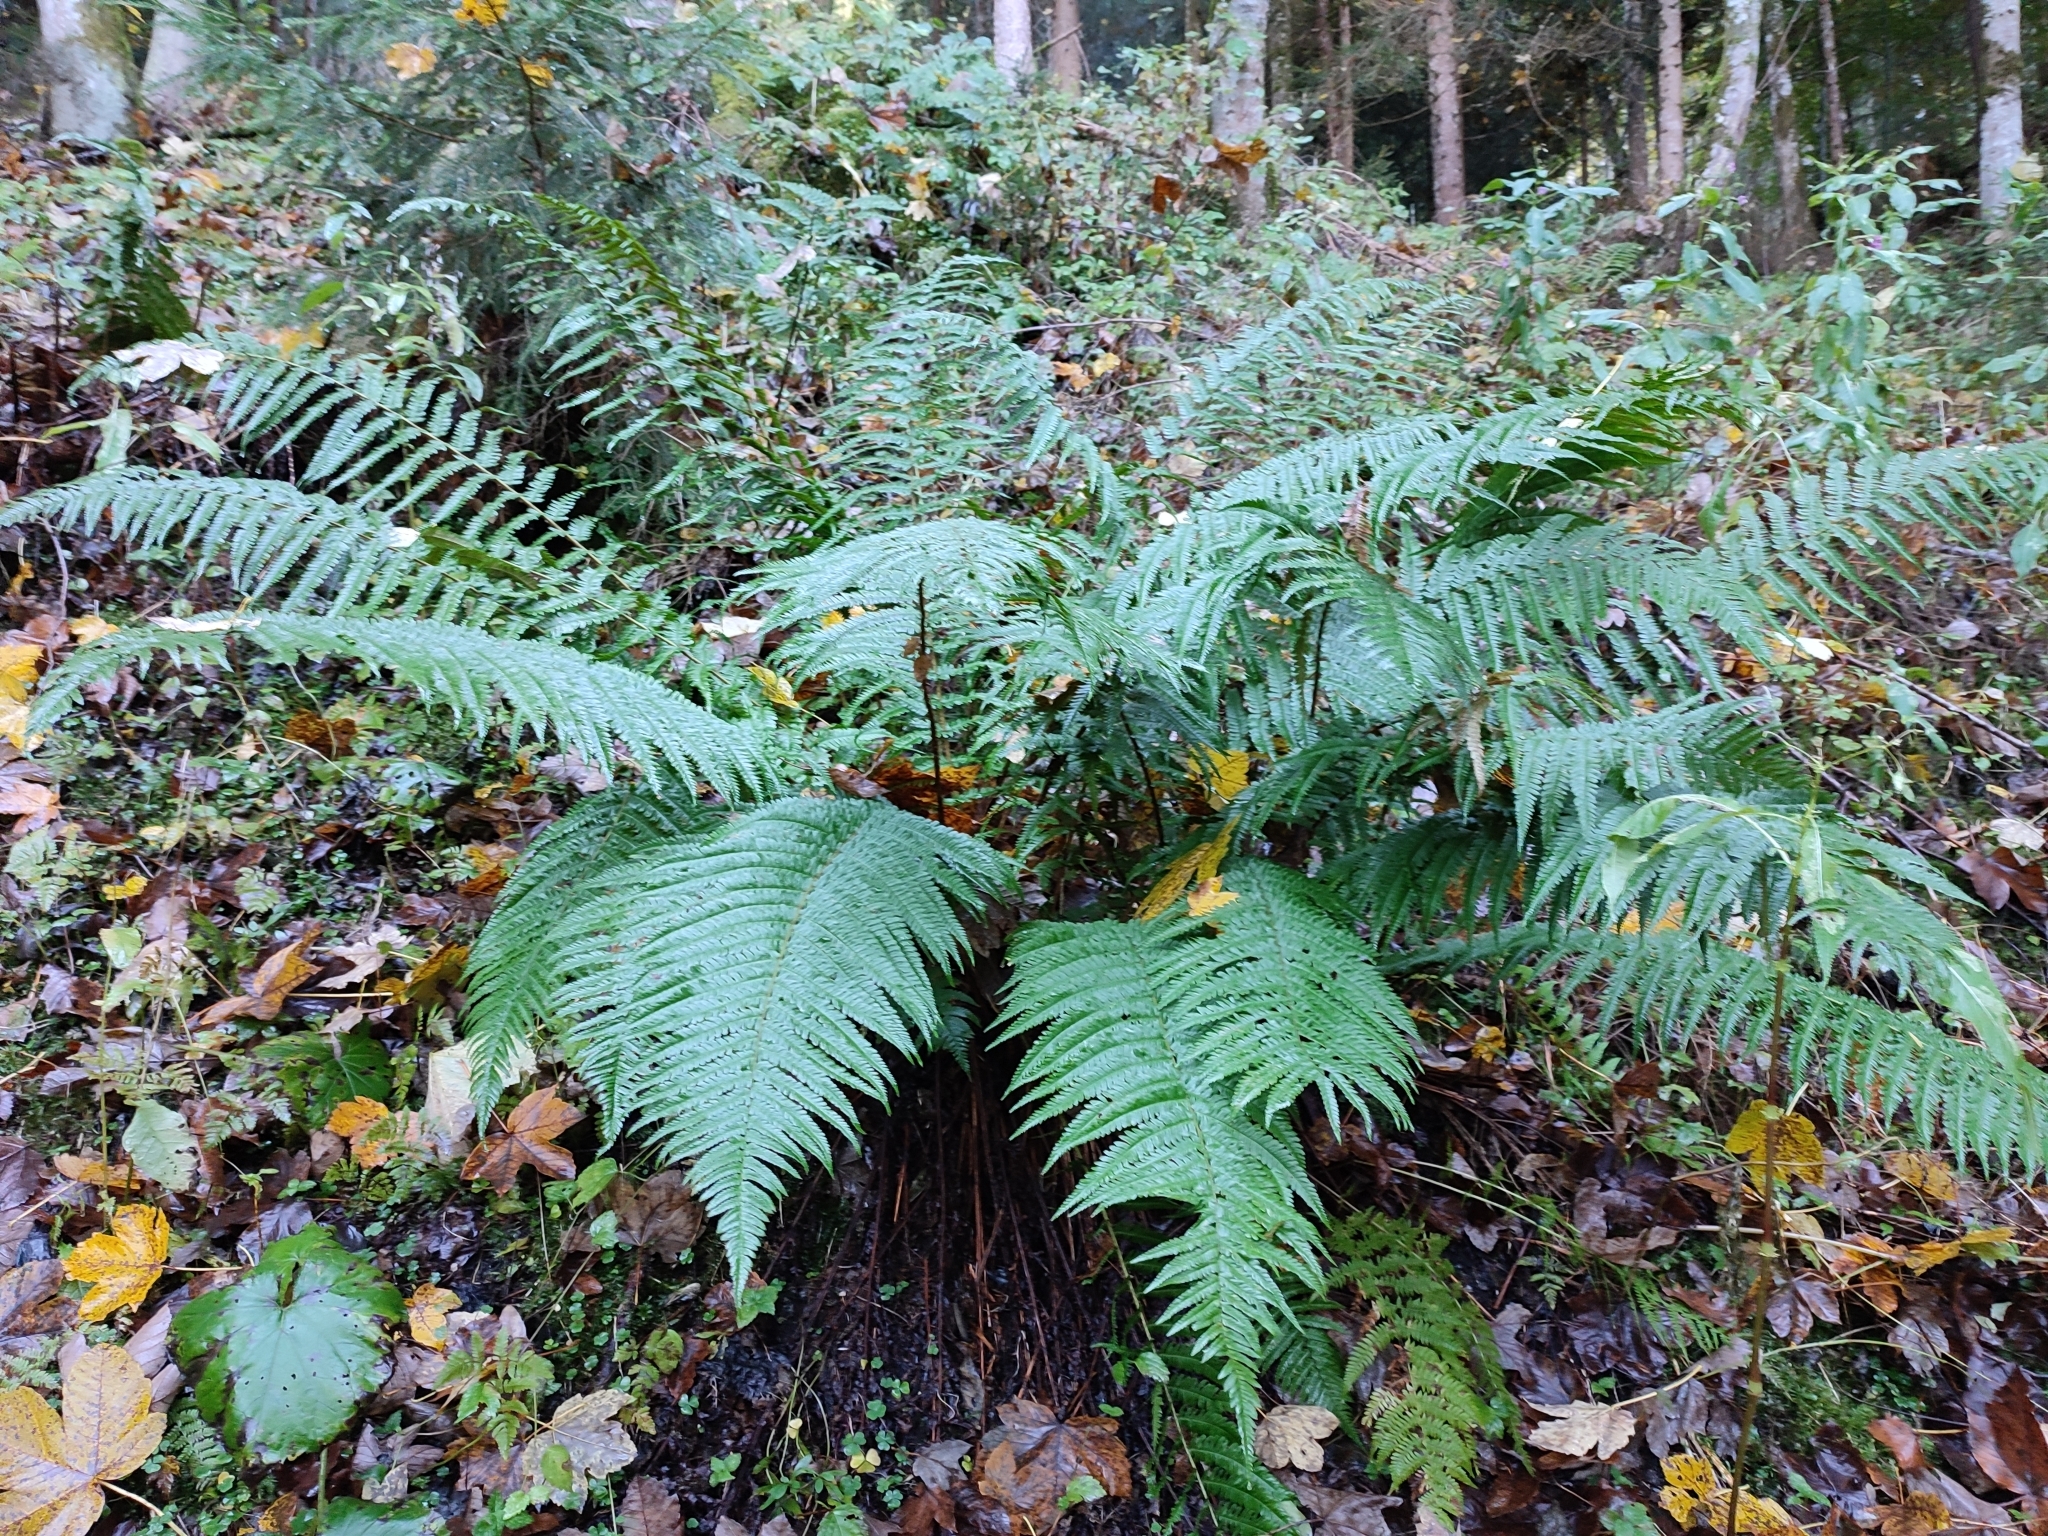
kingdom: Plantae
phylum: Tracheophyta
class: Polypodiopsida
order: Polypodiales
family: Dryopteridaceae
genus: Dryopteris
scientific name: Dryopteris borreri
